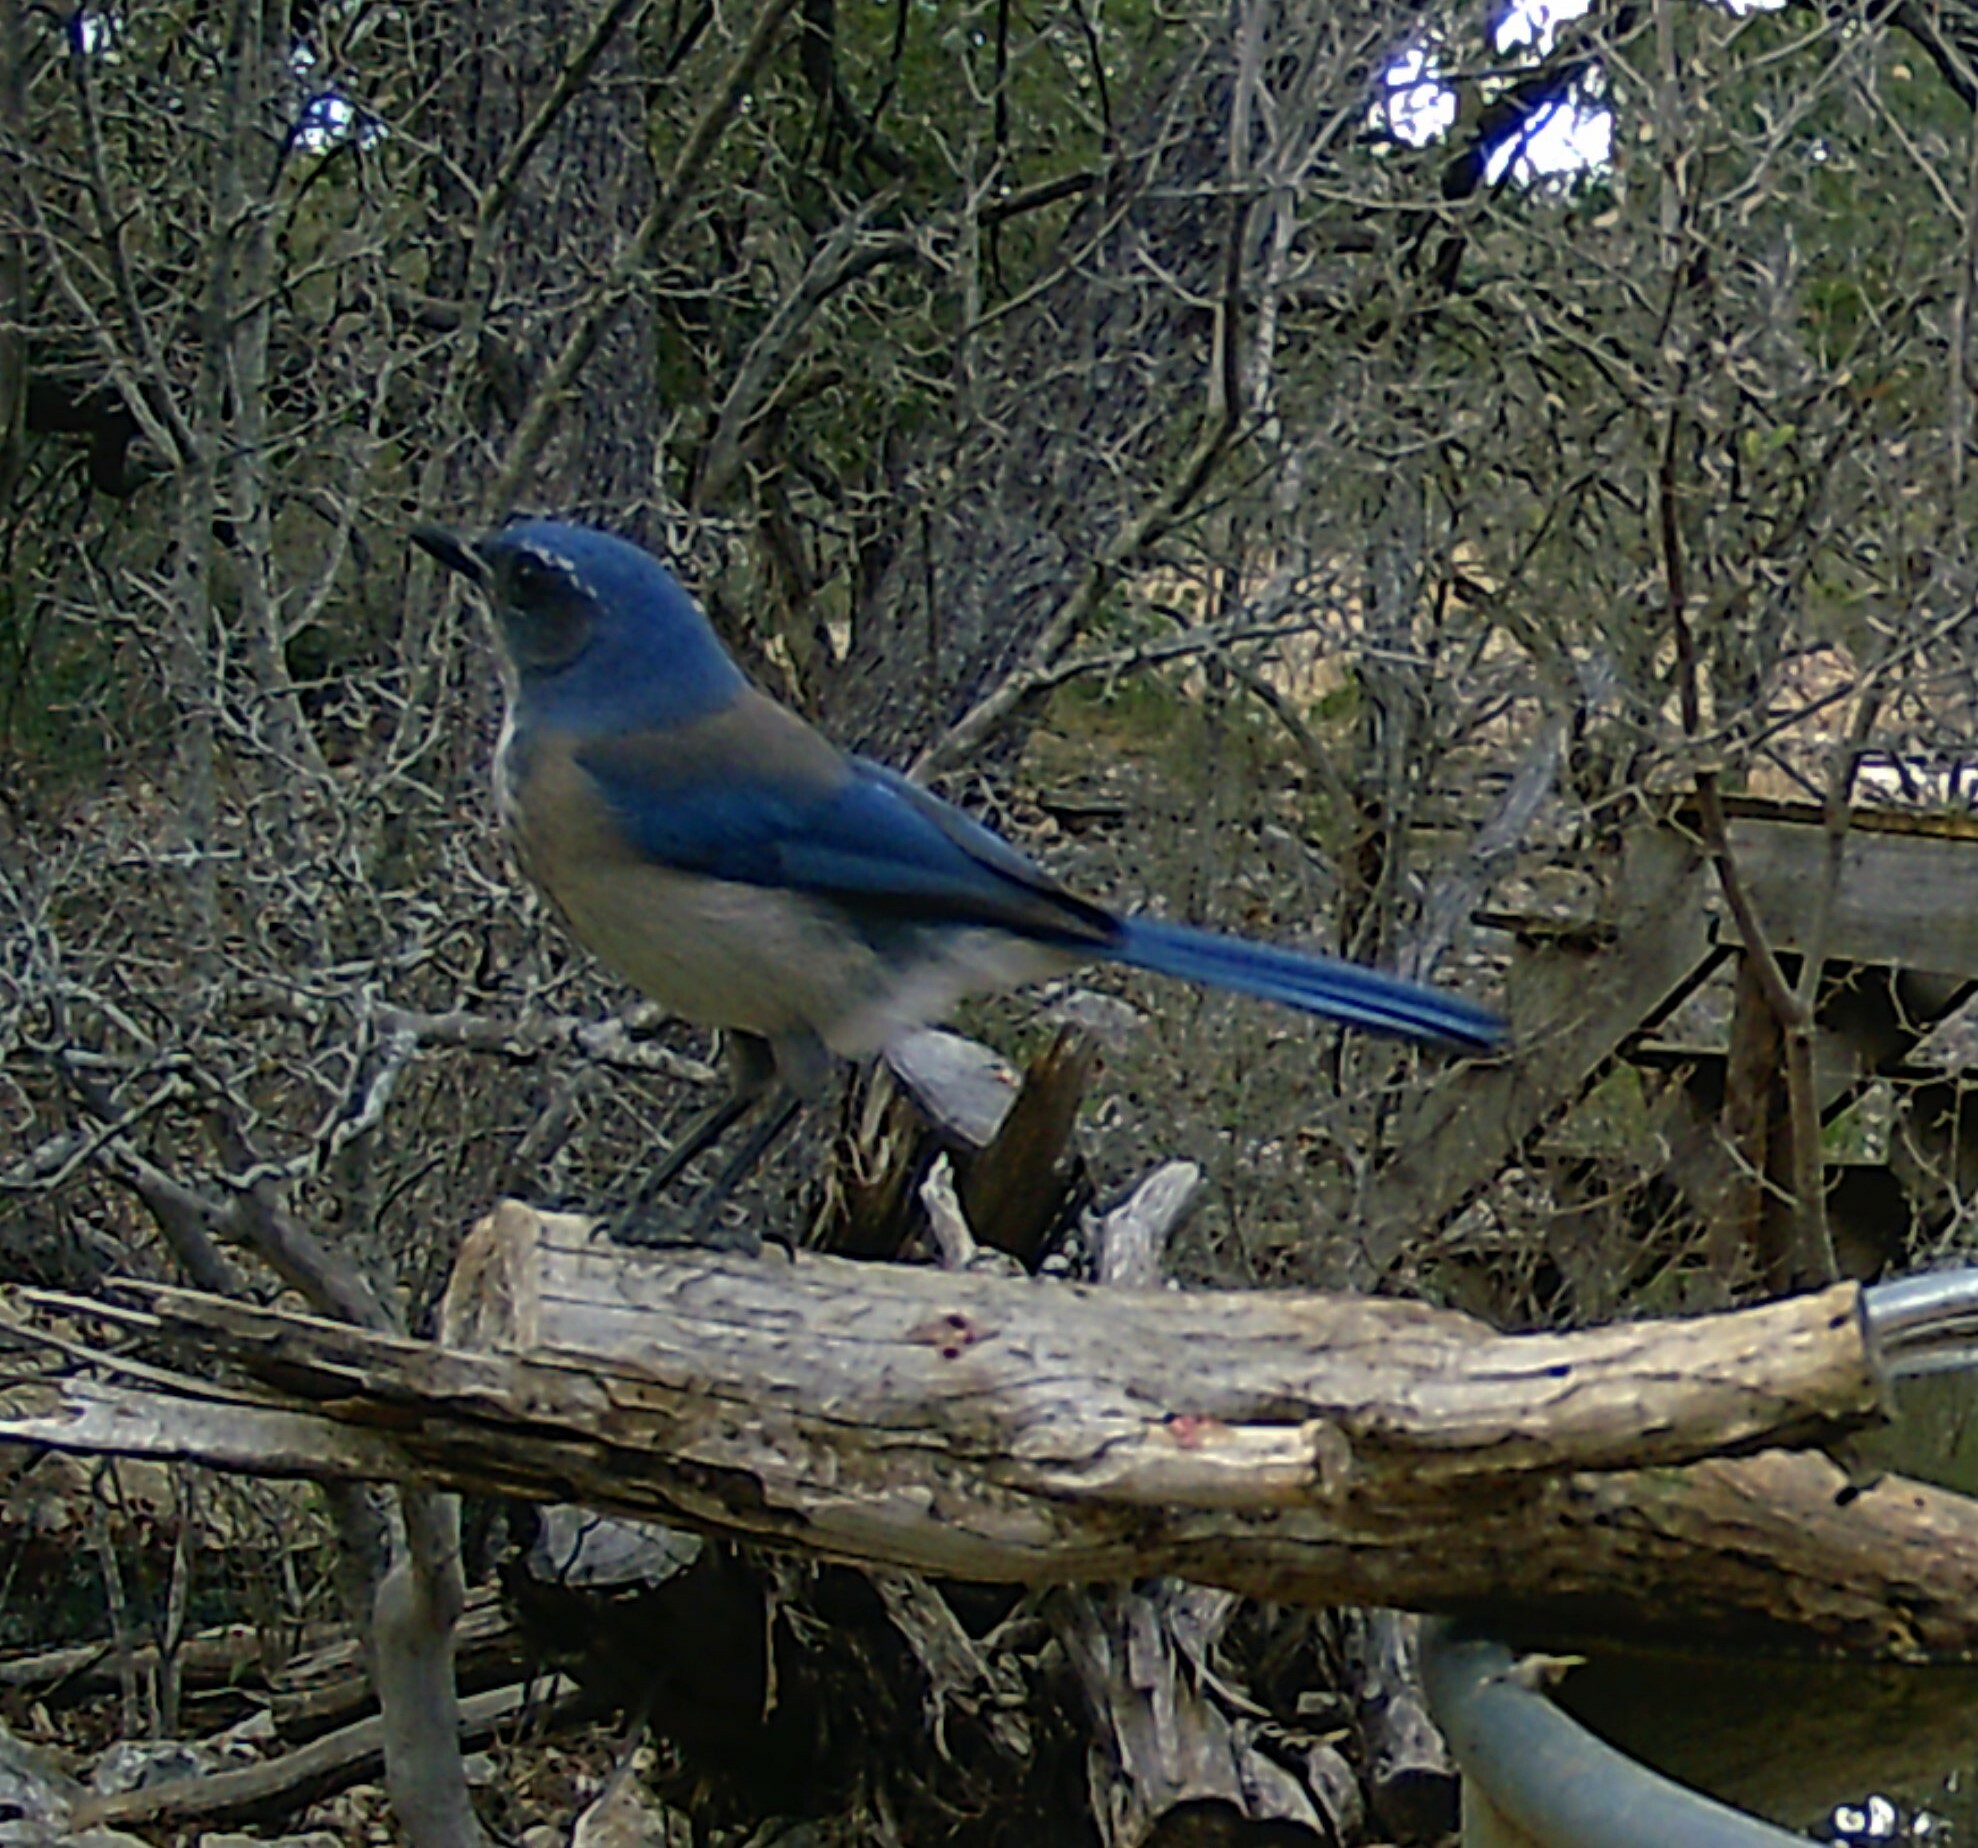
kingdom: Animalia
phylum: Chordata
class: Aves
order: Passeriformes
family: Corvidae
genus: Aphelocoma
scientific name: Aphelocoma woodhouseii
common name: Woodhouse's scrub-jay
